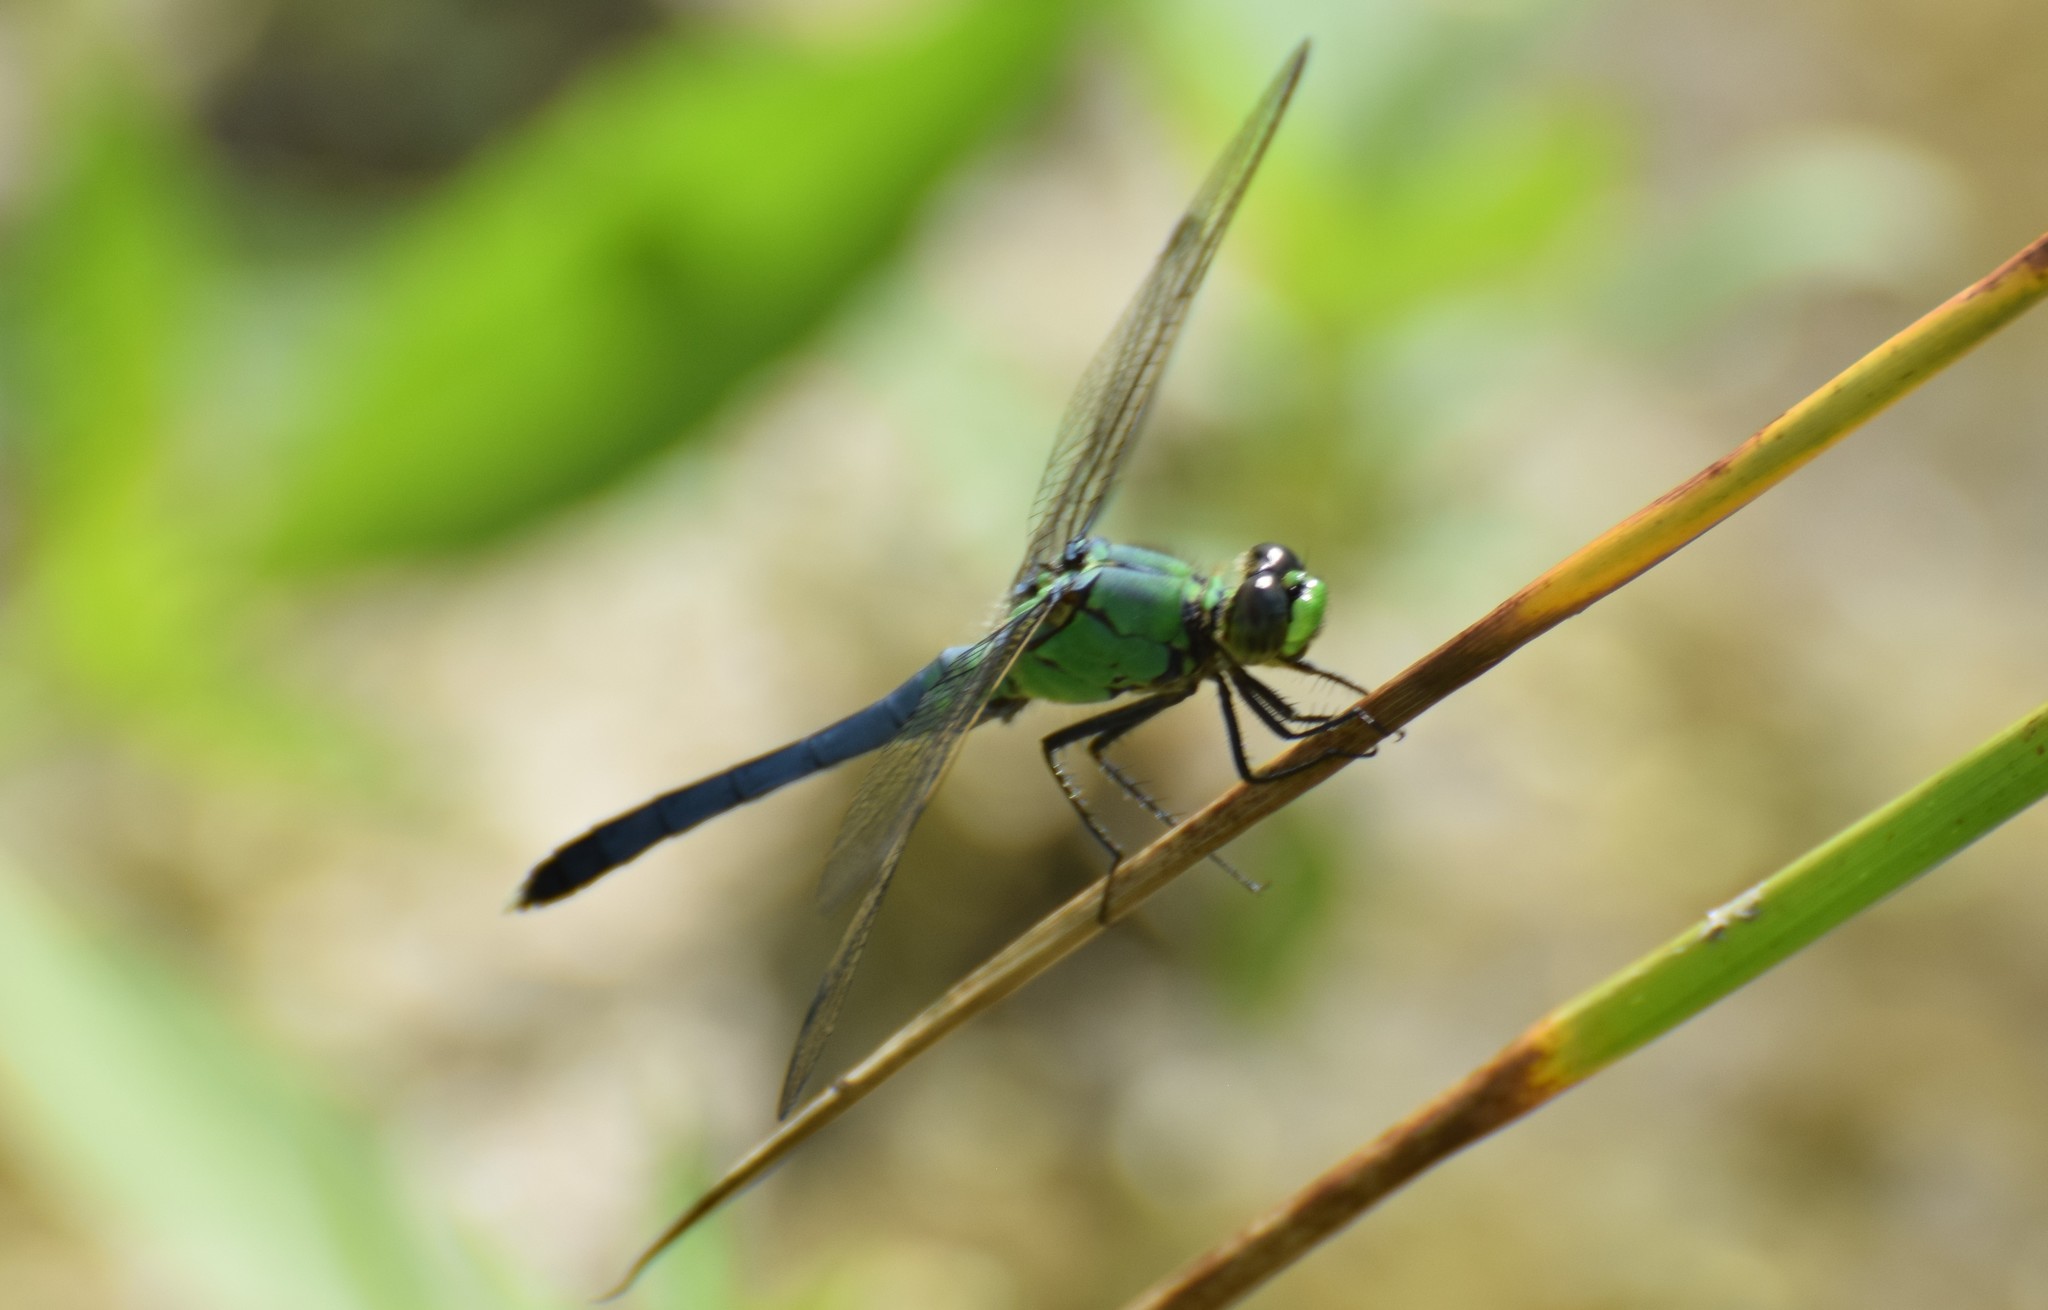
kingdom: Animalia
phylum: Arthropoda
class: Insecta
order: Odonata
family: Libellulidae
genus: Erythemis
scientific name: Erythemis simplicicollis
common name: Eastern pondhawk
